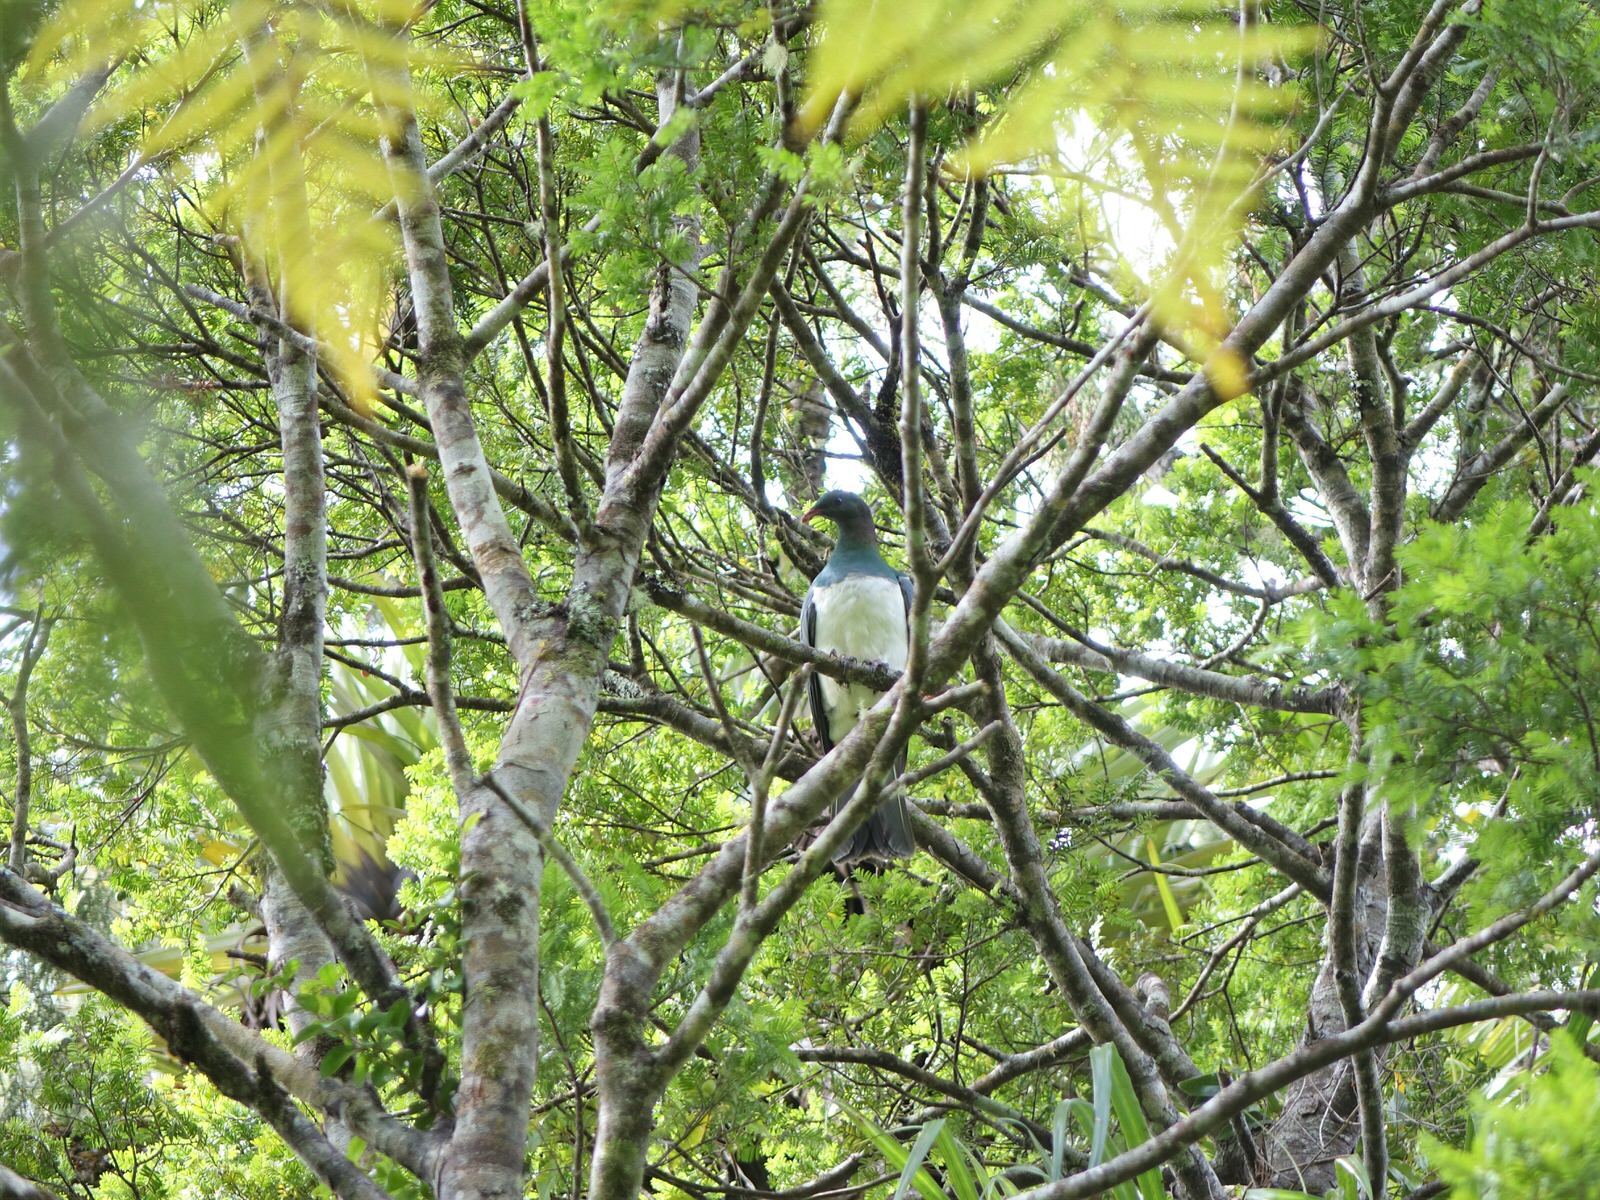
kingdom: Animalia
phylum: Chordata
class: Aves
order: Columbiformes
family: Columbidae
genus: Hemiphaga
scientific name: Hemiphaga novaeseelandiae
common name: New zealand pigeon
